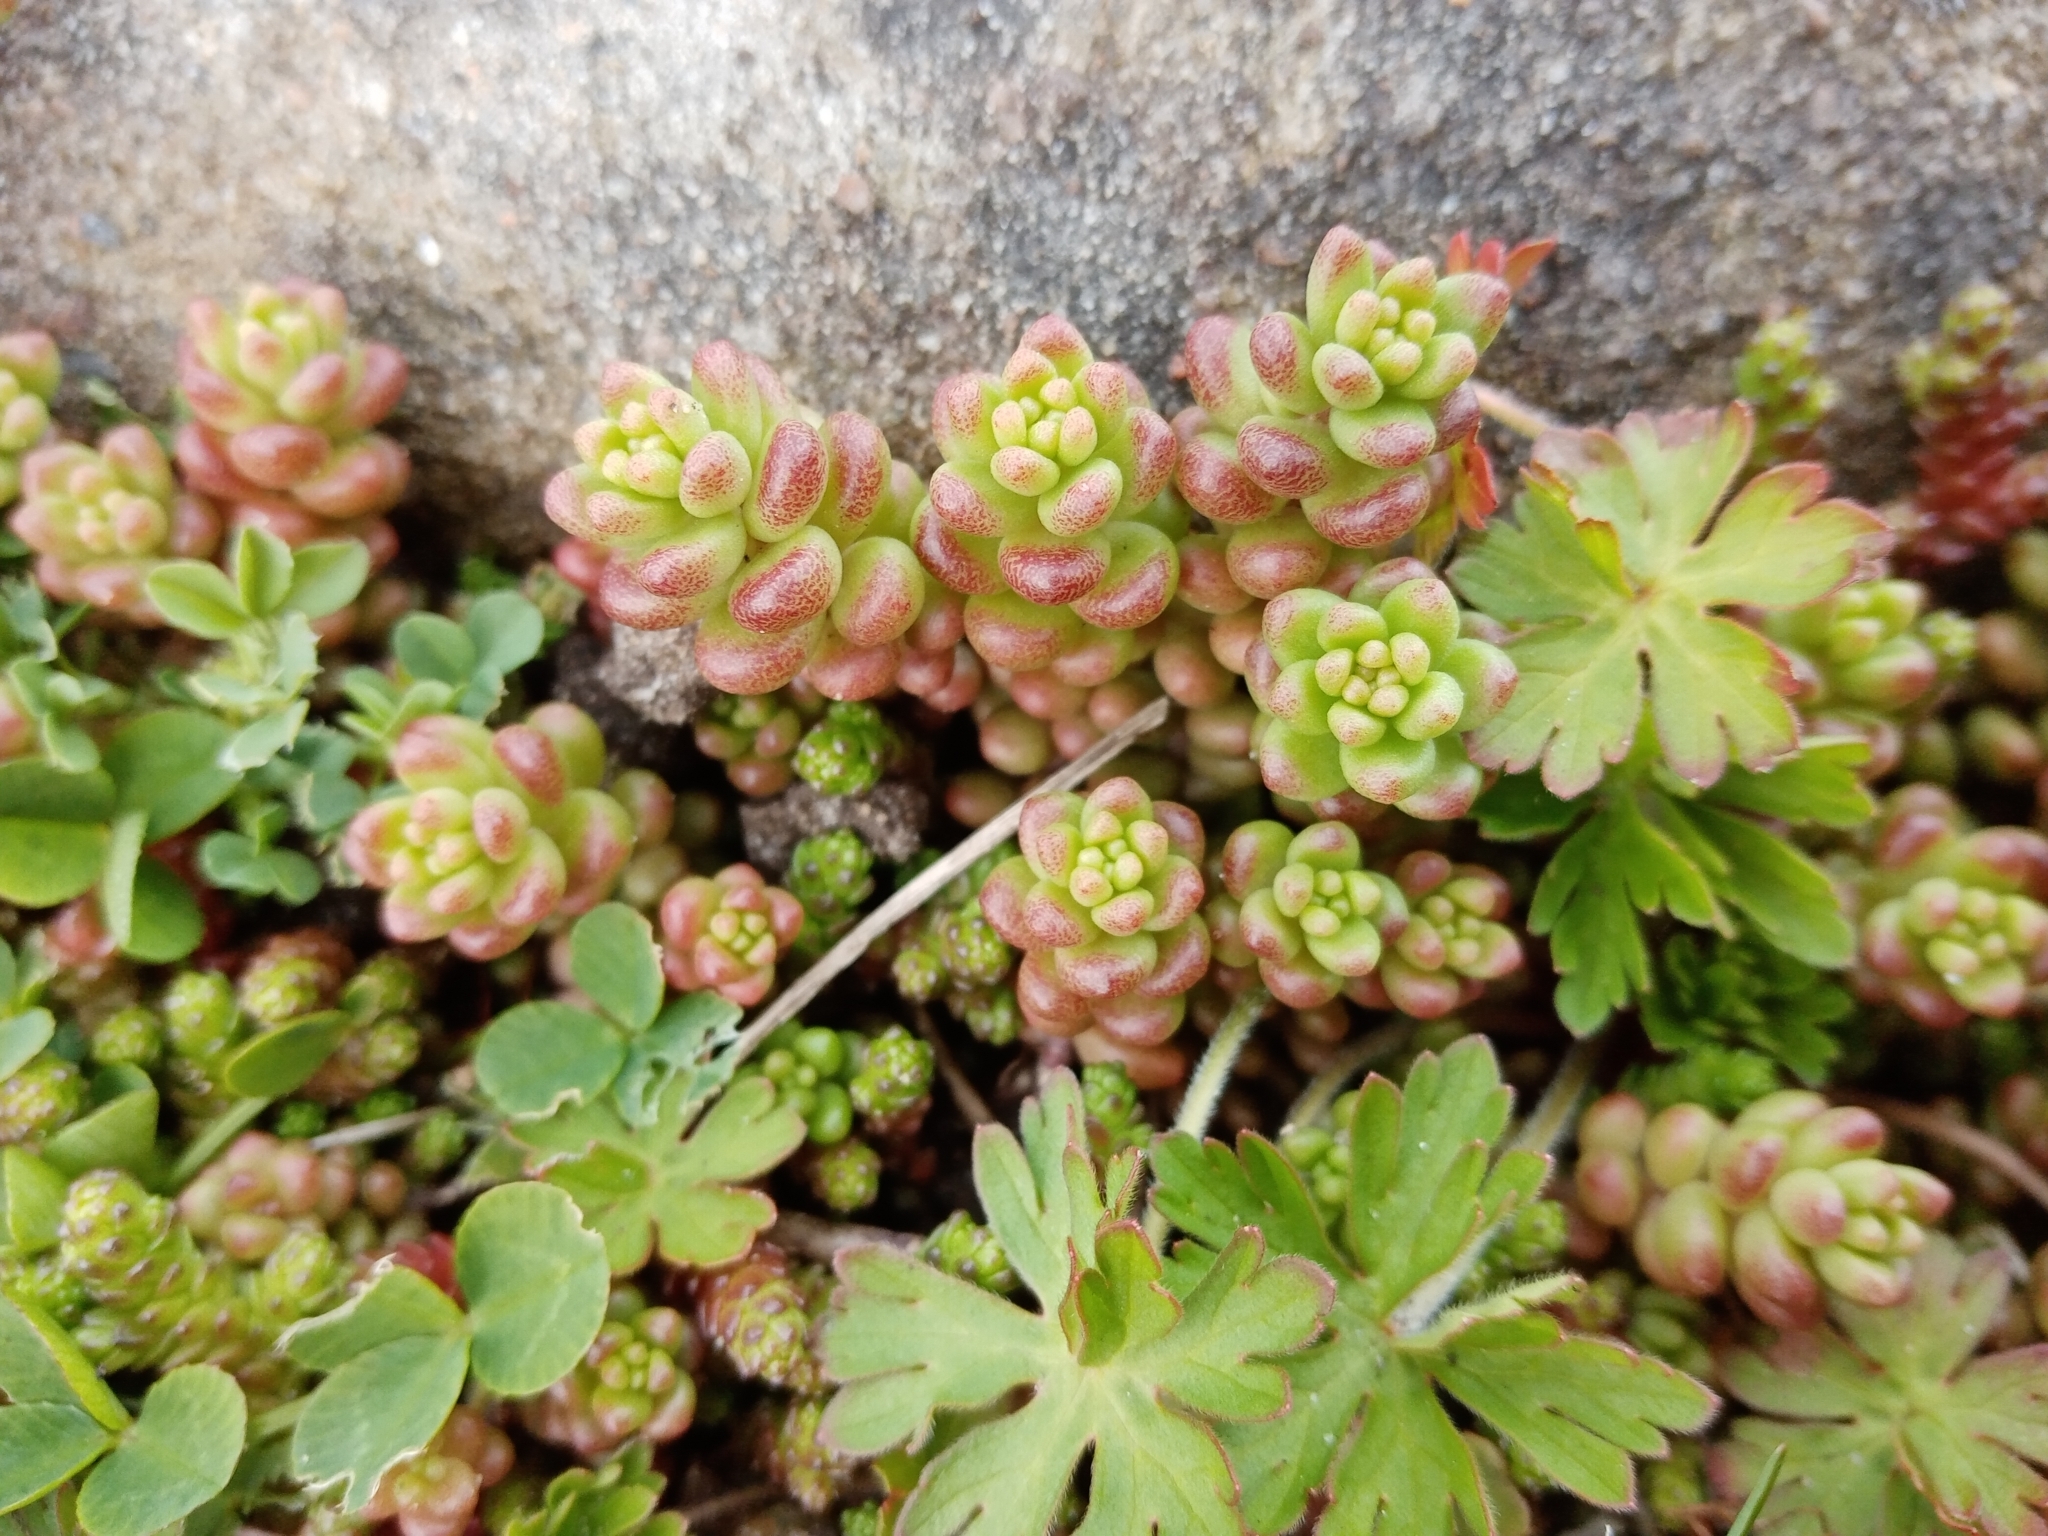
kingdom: Plantae
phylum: Tracheophyta
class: Magnoliopsida
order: Saxifragales
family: Crassulaceae
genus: Sedum
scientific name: Sedum album
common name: White stonecrop
